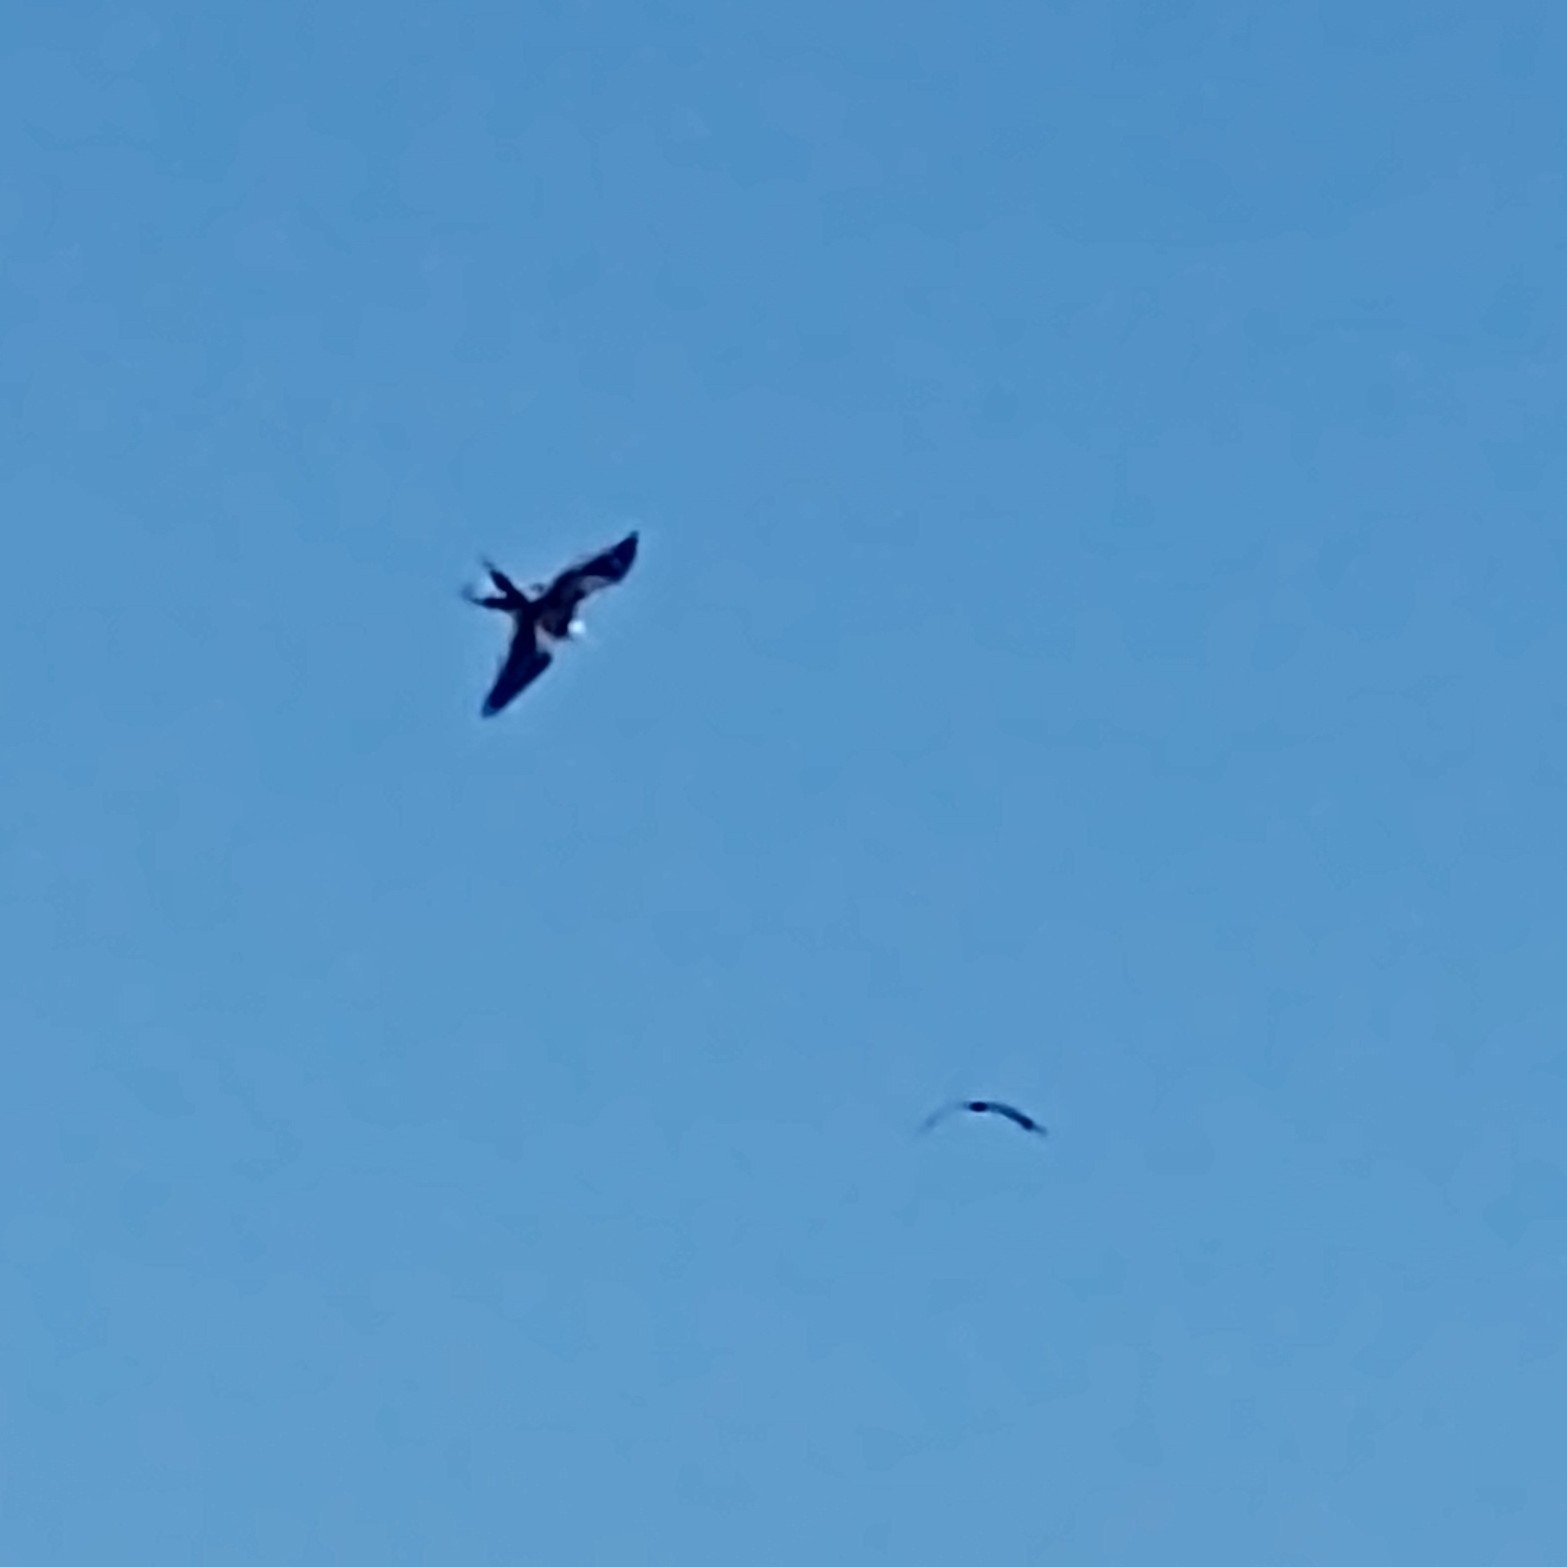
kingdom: Animalia
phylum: Chordata
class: Aves
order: Suliformes
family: Fregatidae
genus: Fregata
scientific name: Fregata magnificens
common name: Magnificent frigatebird
